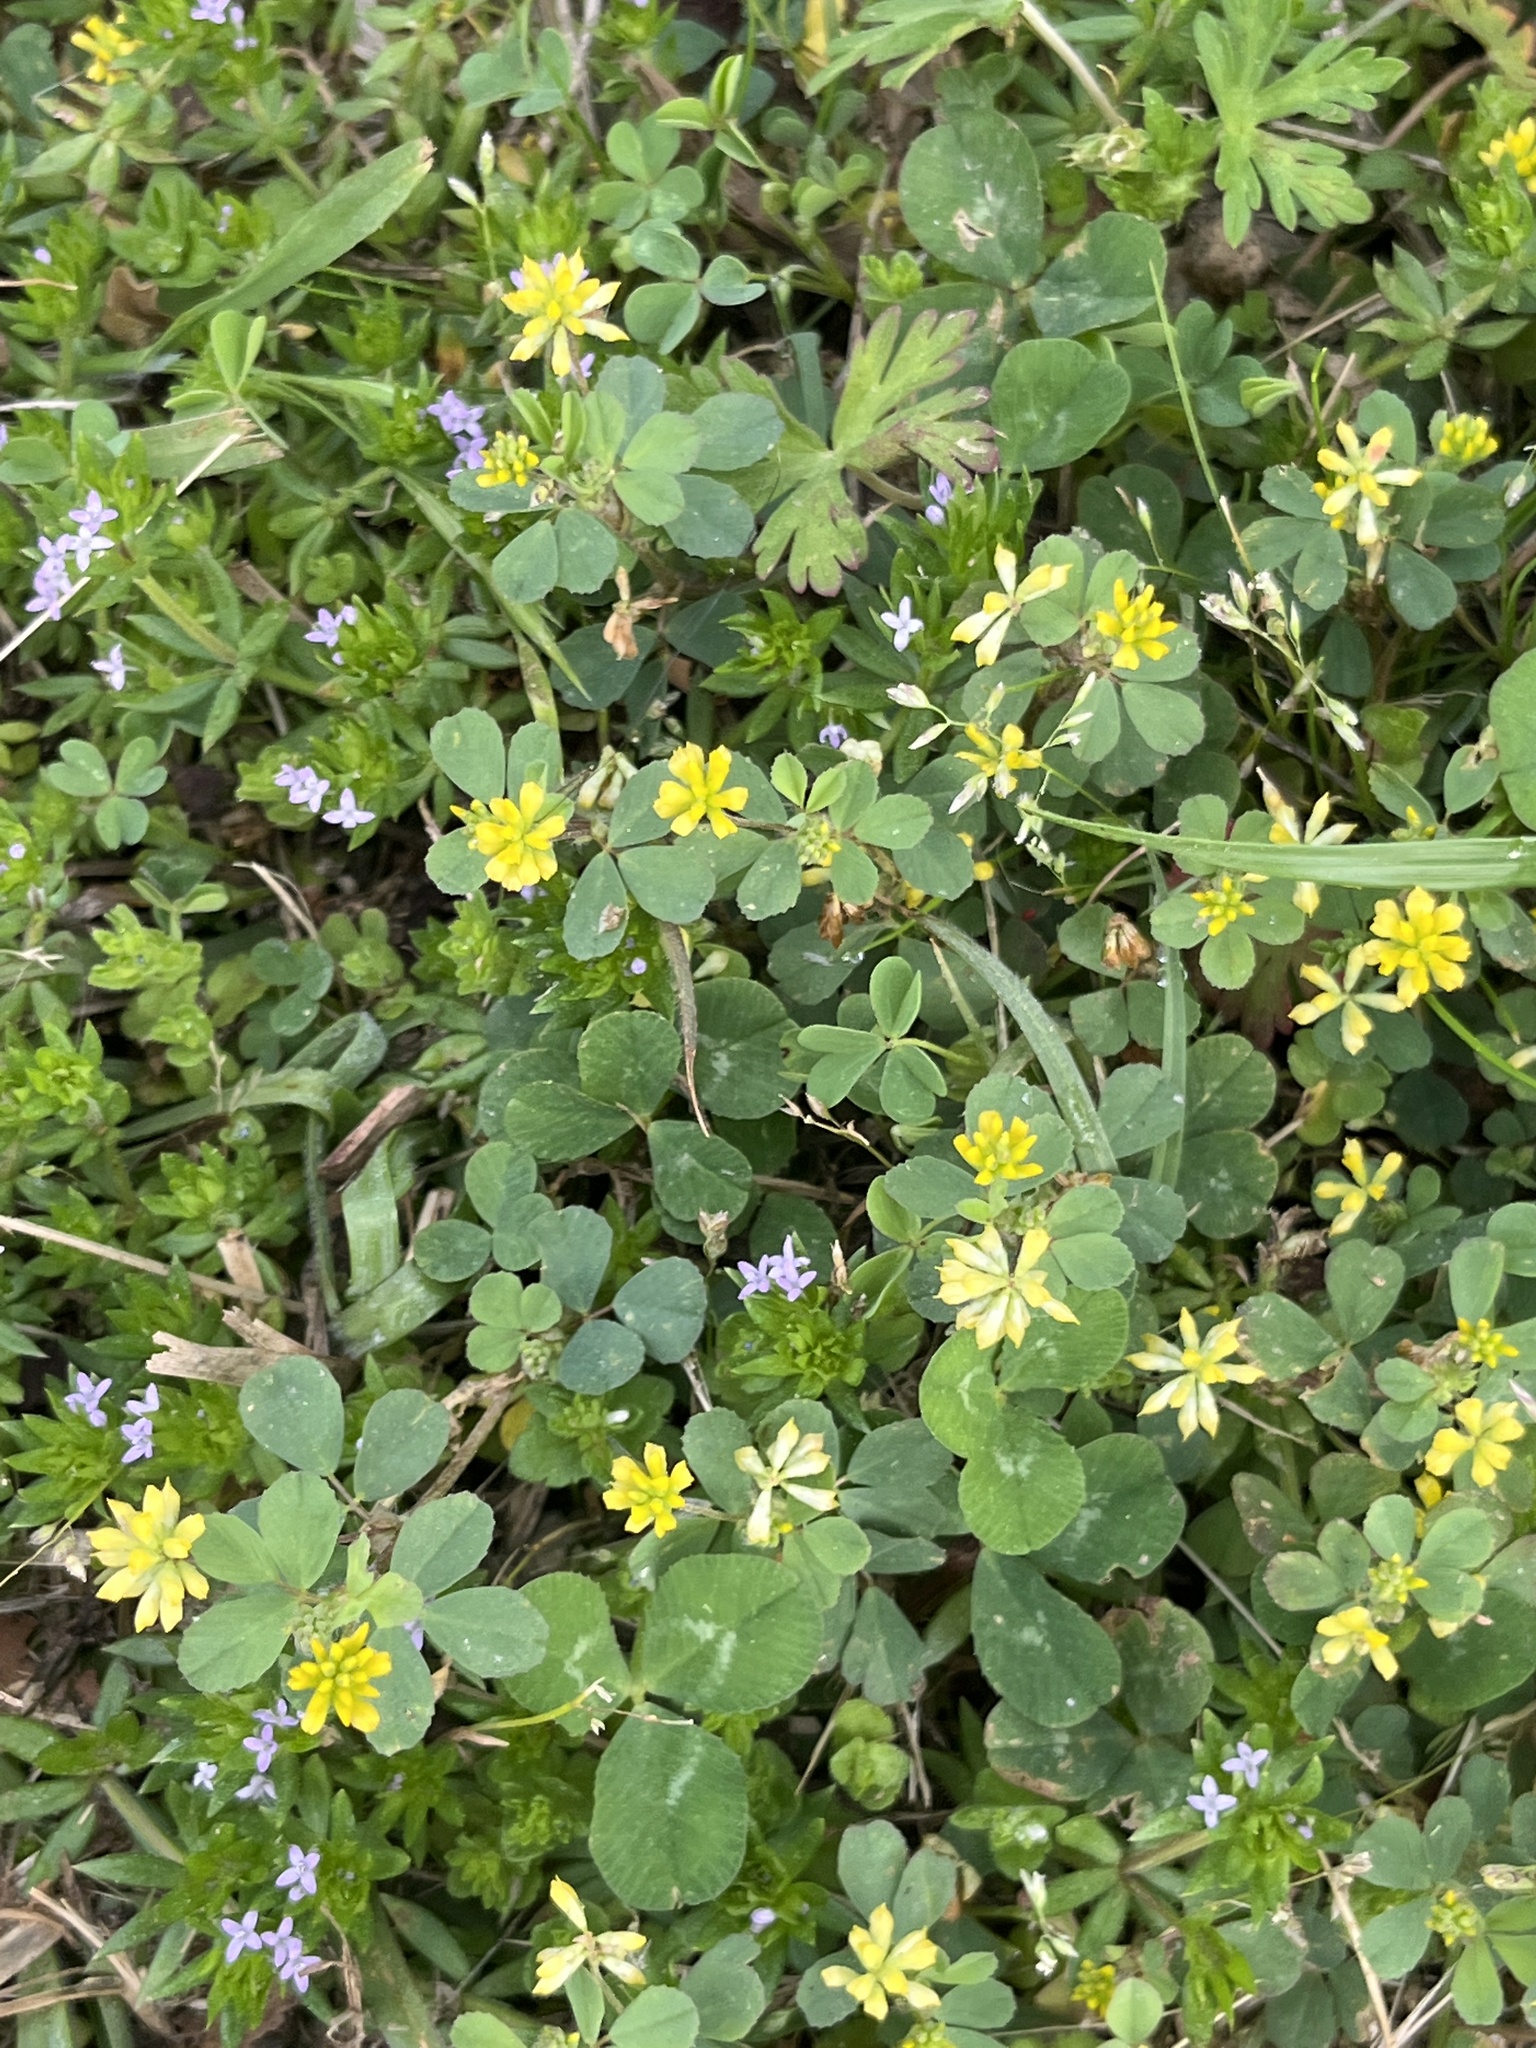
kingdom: Plantae
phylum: Tracheophyta
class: Magnoliopsida
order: Fabales
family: Fabaceae
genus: Trifolium
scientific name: Trifolium dubium
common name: Suckling clover
